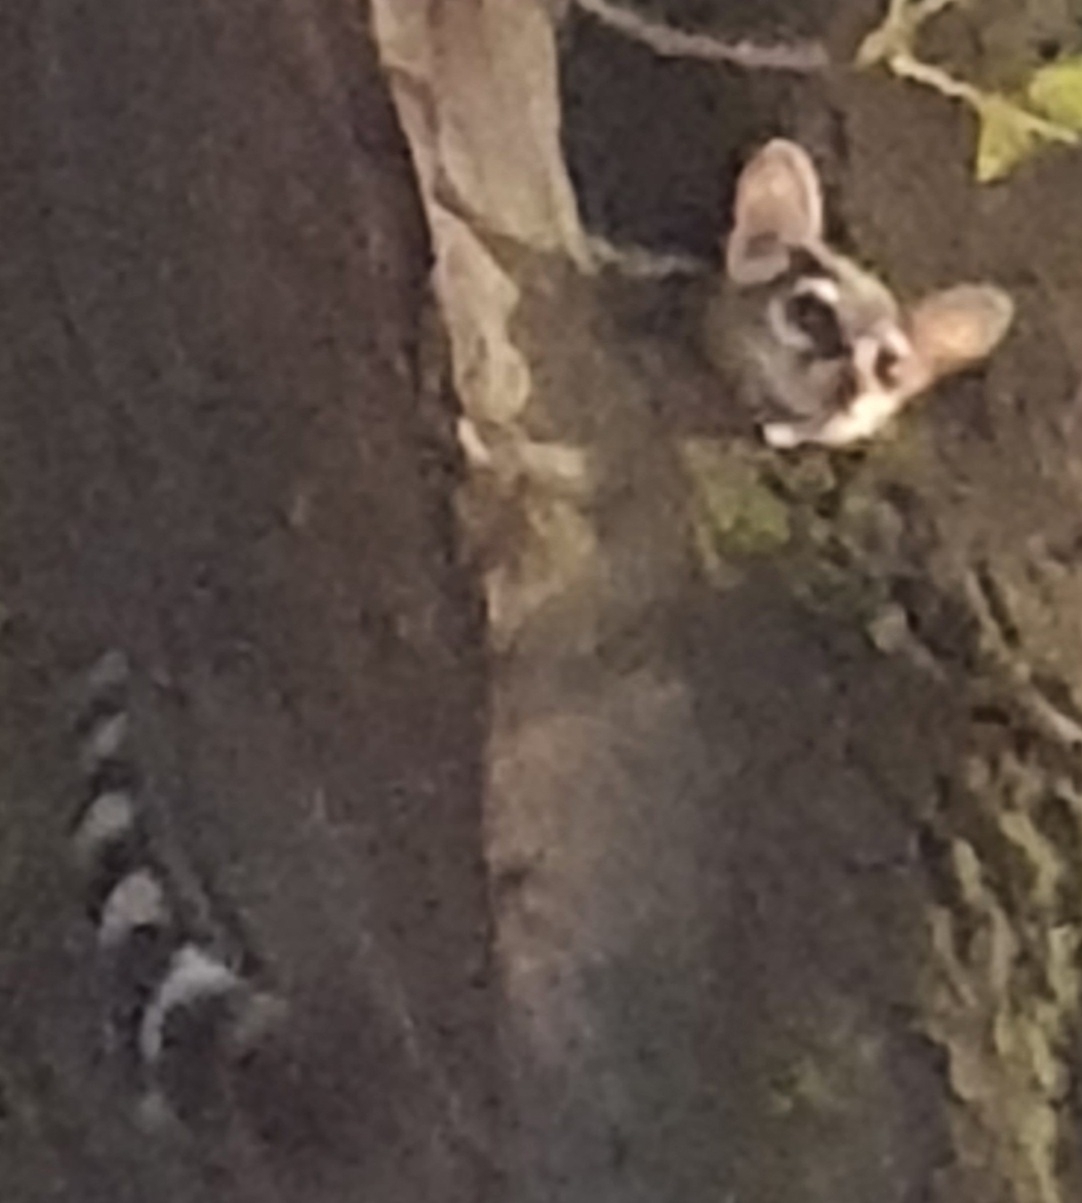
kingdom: Animalia
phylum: Chordata
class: Mammalia
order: Carnivora
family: Procyonidae
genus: Bassariscus
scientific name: Bassariscus astutus
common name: Ringtail
